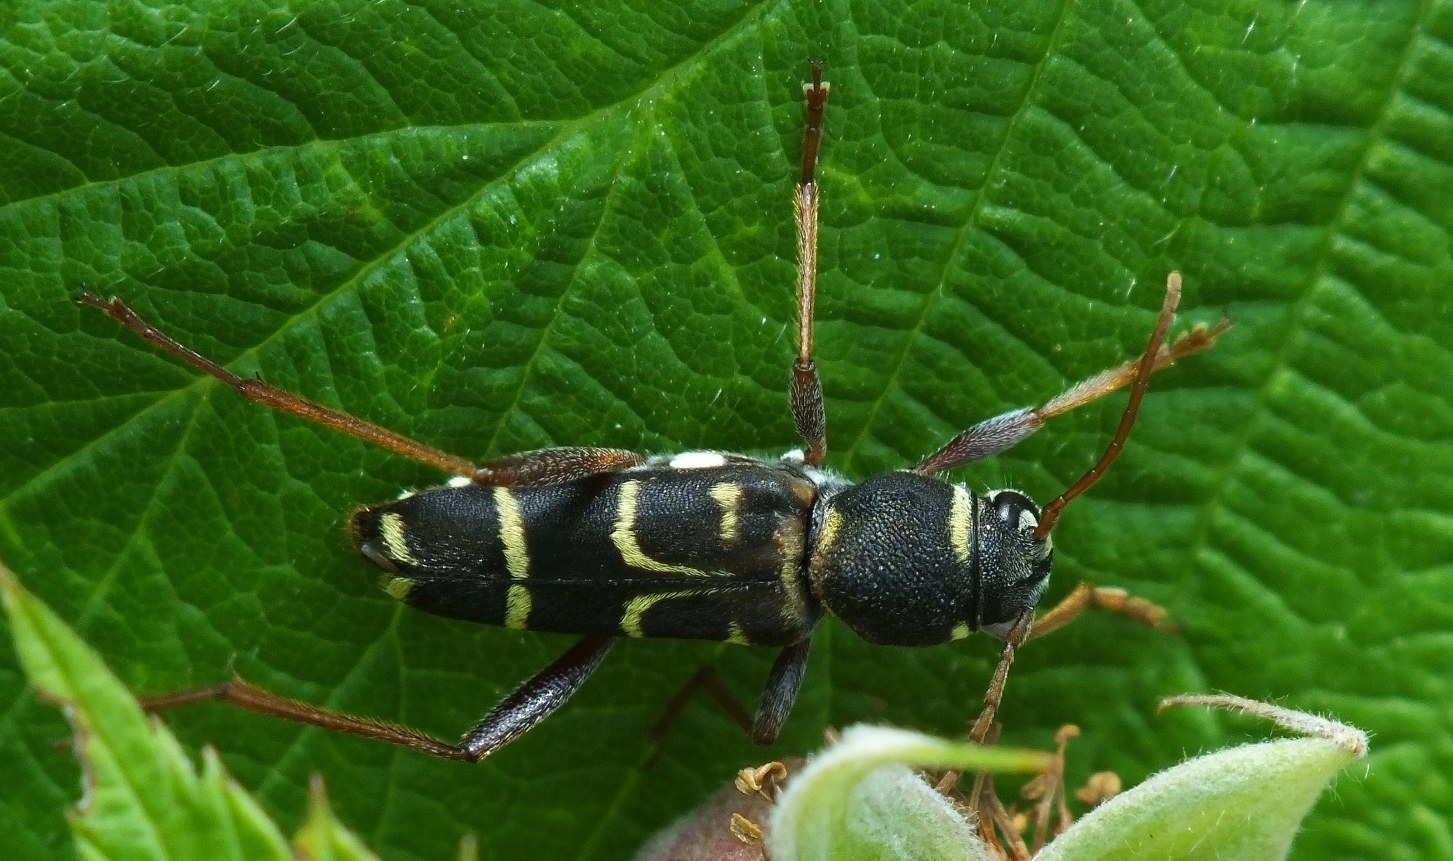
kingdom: Animalia
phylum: Arthropoda
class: Insecta
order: Coleoptera
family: Cerambycidae
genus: Xylotrechus
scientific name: Xylotrechus arvicola
